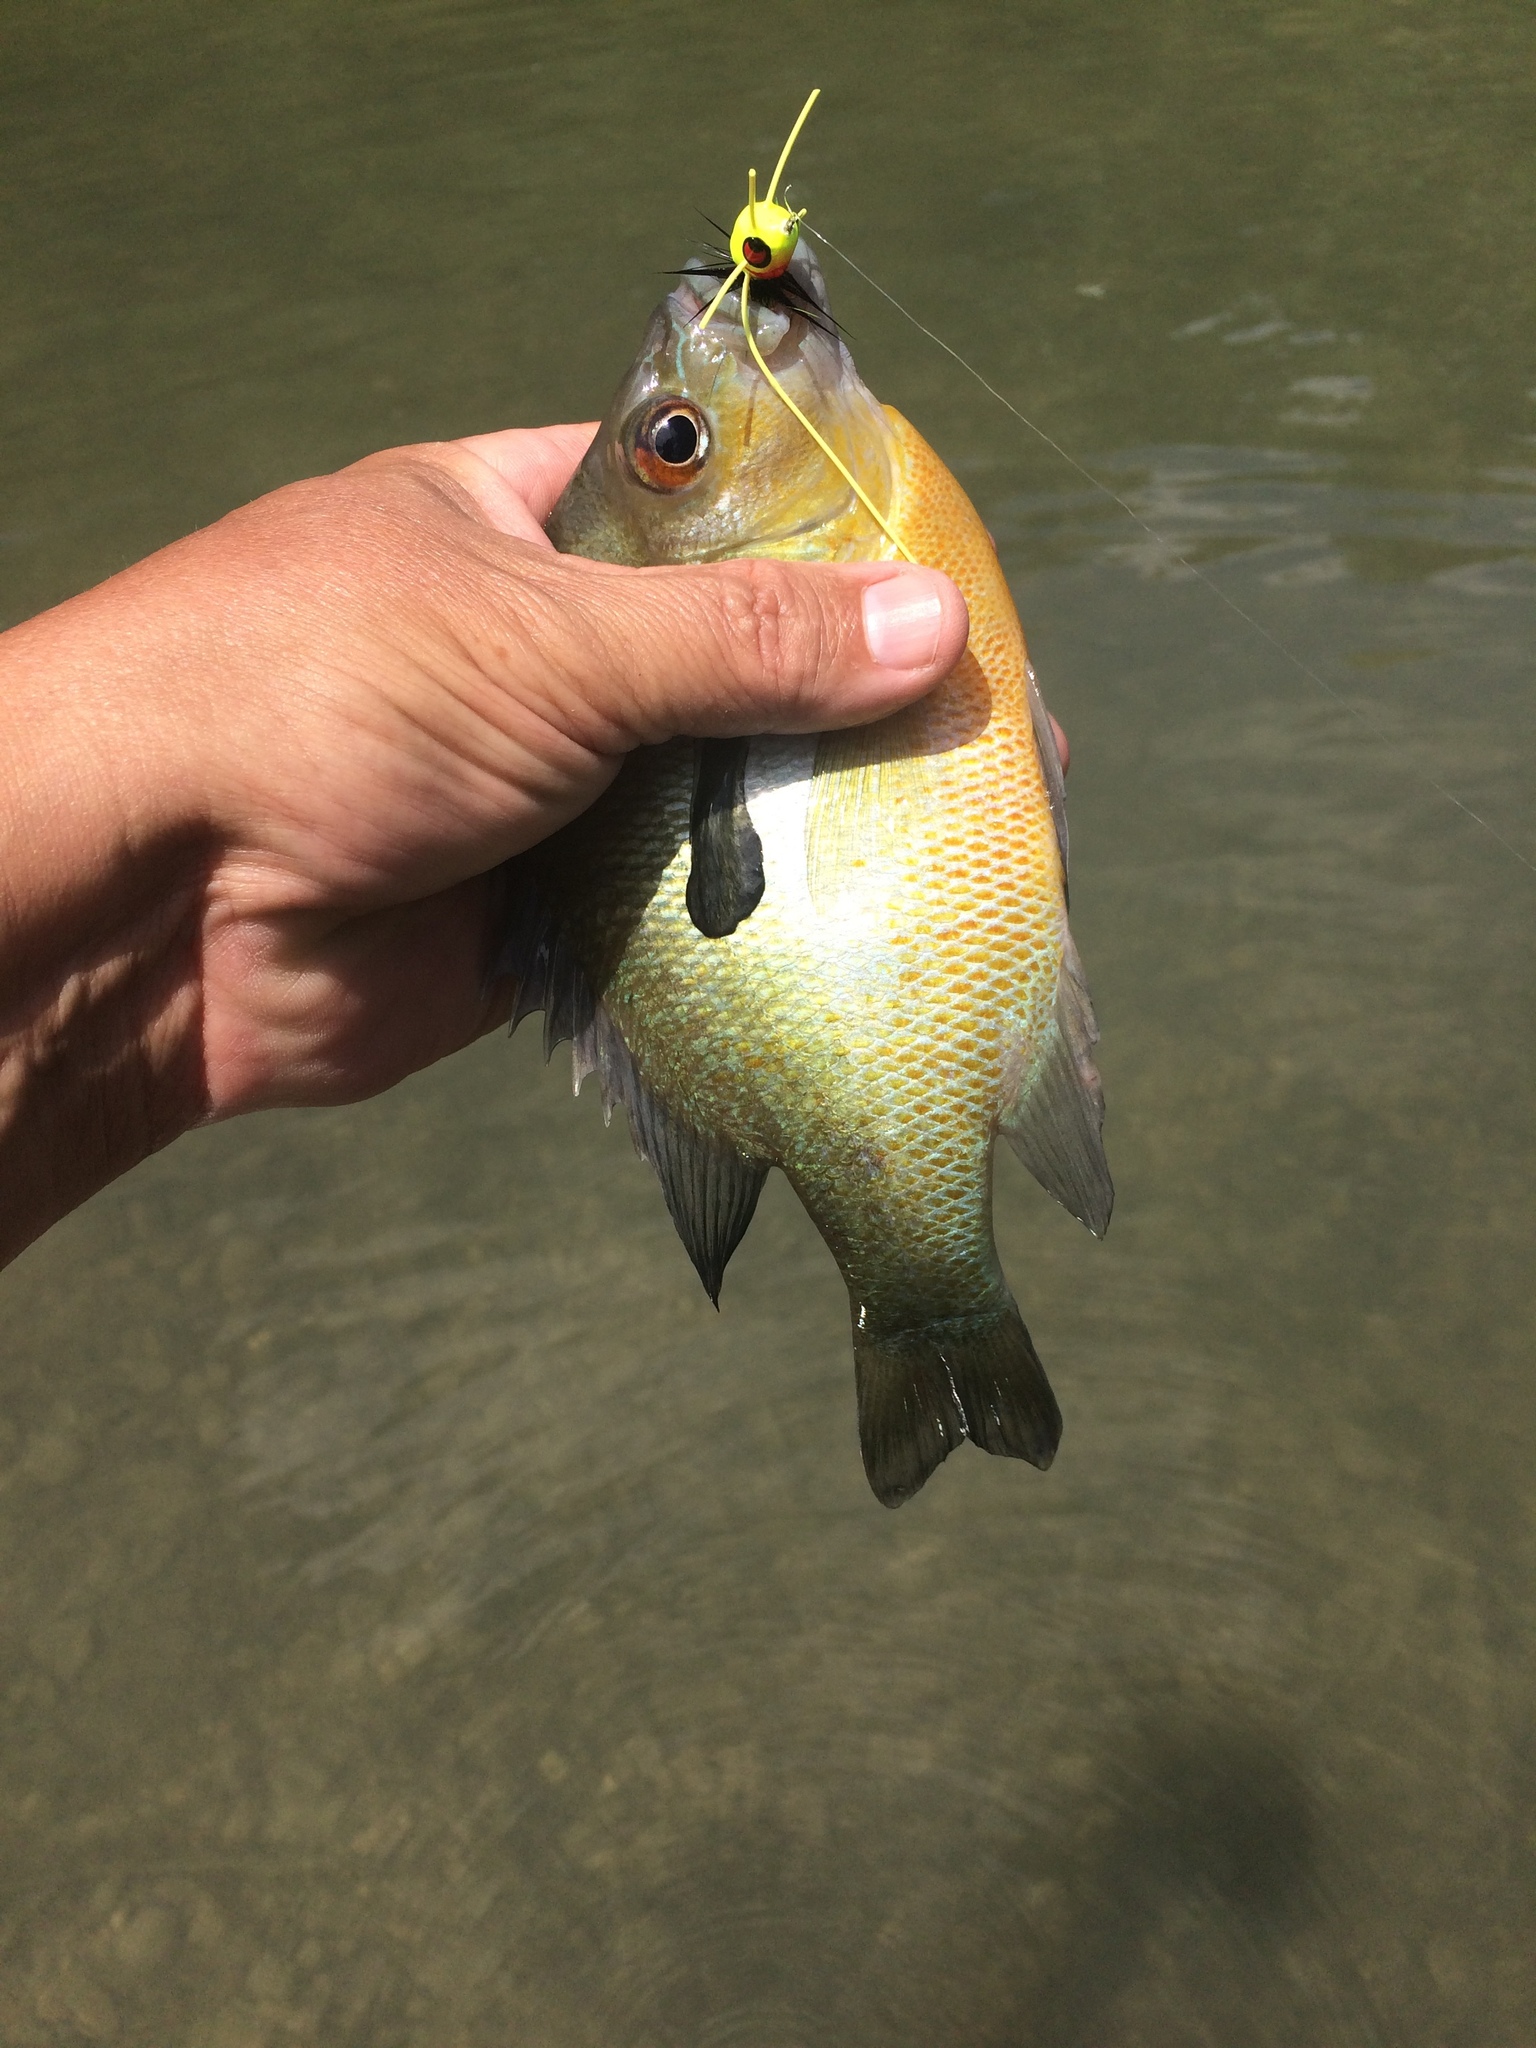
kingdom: Animalia
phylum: Chordata
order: Perciformes
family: Centrarchidae
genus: Lepomis
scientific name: Lepomis auritus
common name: Redbreast sunfish
